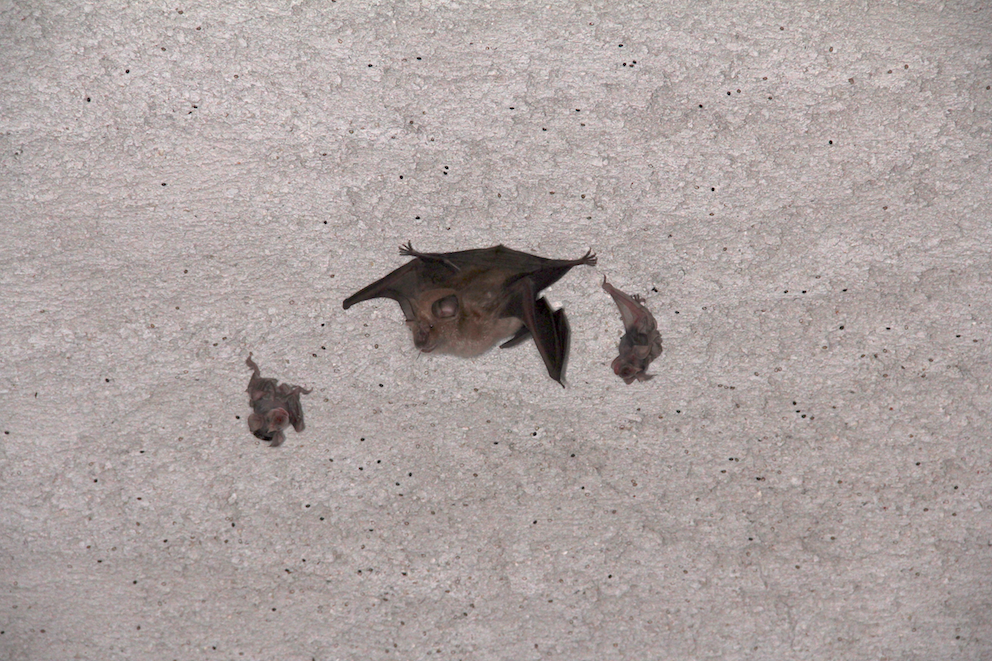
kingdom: Animalia
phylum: Chordata
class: Mammalia
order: Chiroptera
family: Rhinolophidae
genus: Rhinolophus
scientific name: Rhinolophus ferrumequinum
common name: Greater horseshoe bat
